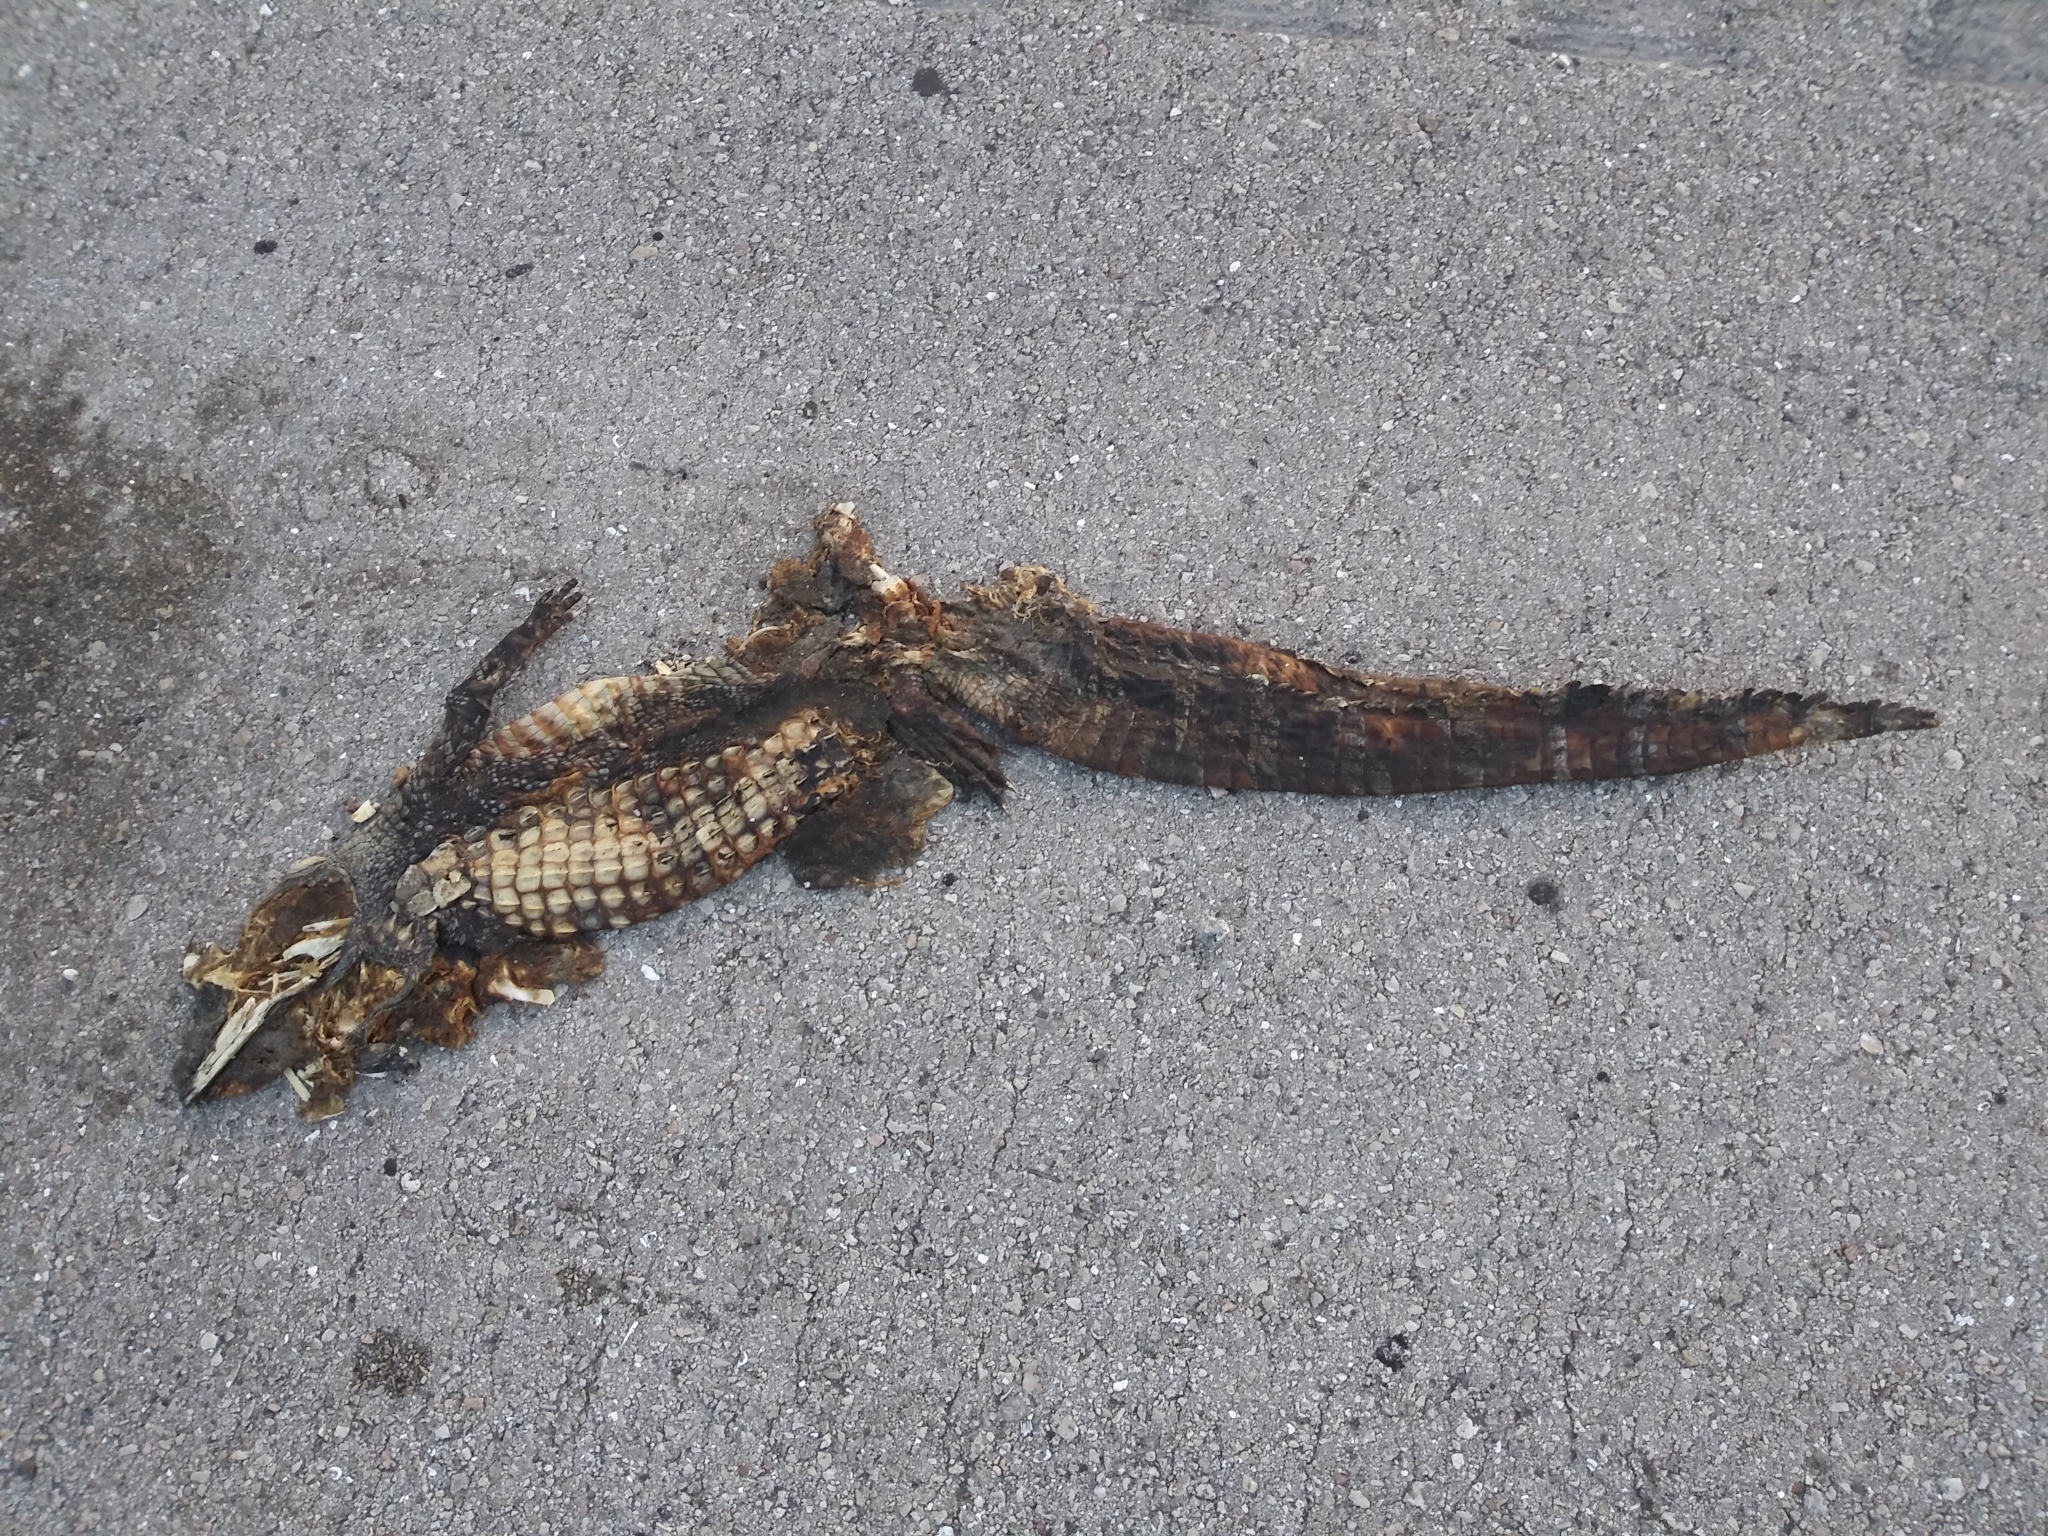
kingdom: Animalia
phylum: Chordata
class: Crocodylia
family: Alligatoridae
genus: Alligator
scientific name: Alligator mississippiensis
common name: American alligator
